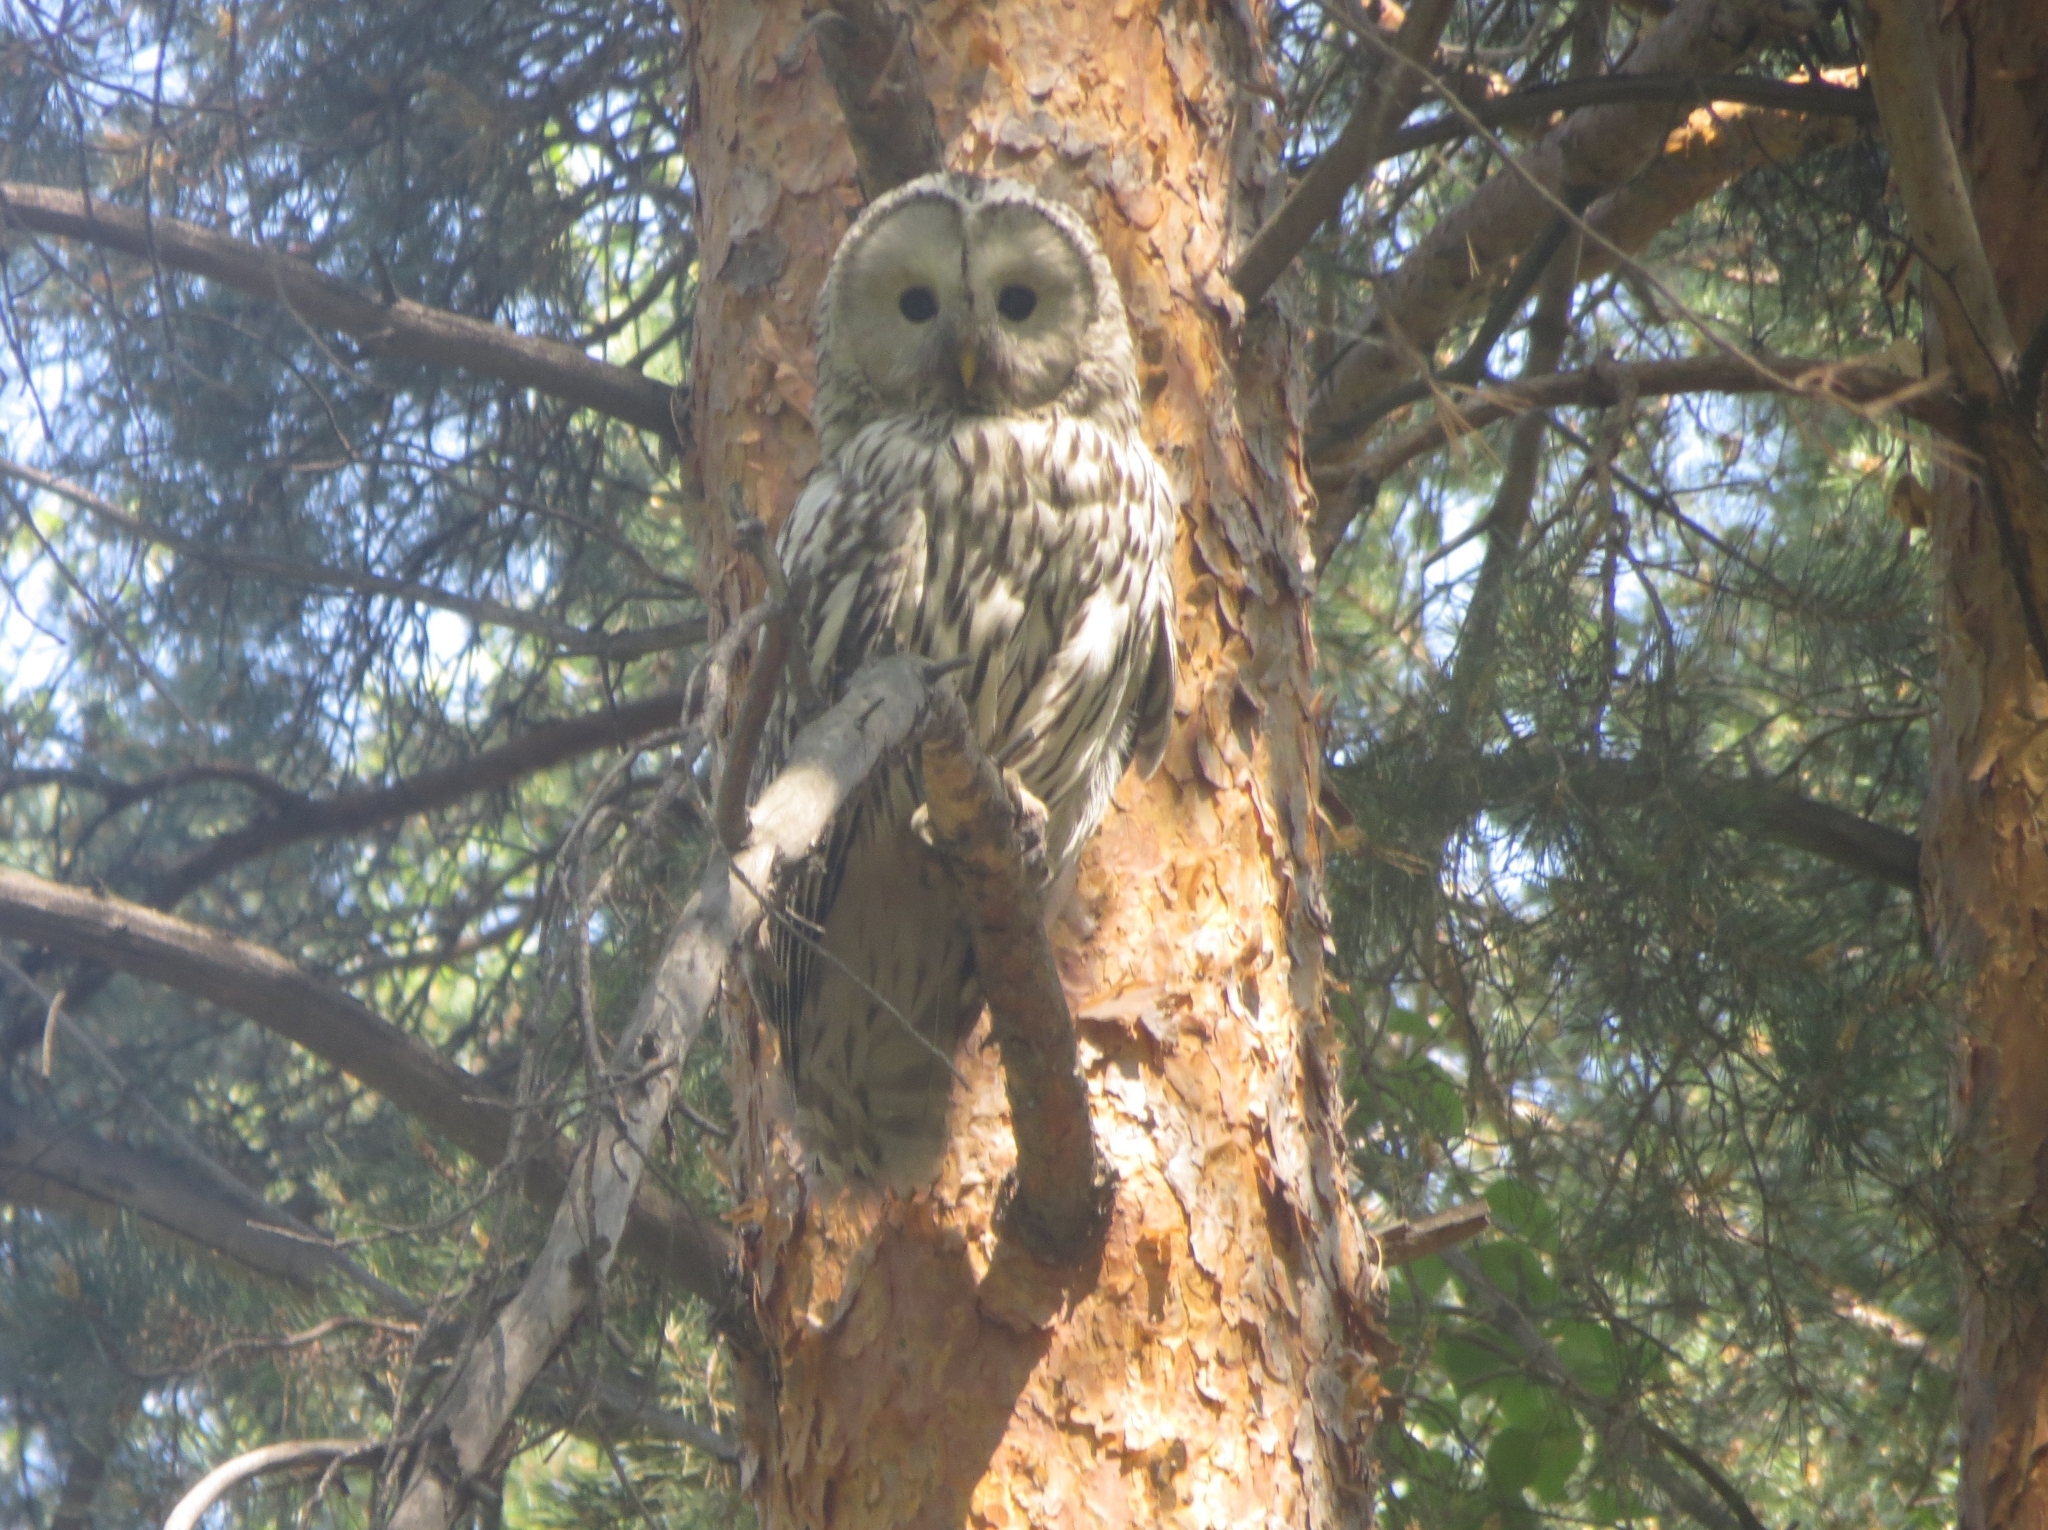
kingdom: Animalia
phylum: Chordata
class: Aves
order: Strigiformes
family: Strigidae
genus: Strix
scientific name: Strix uralensis
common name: Ural owl
